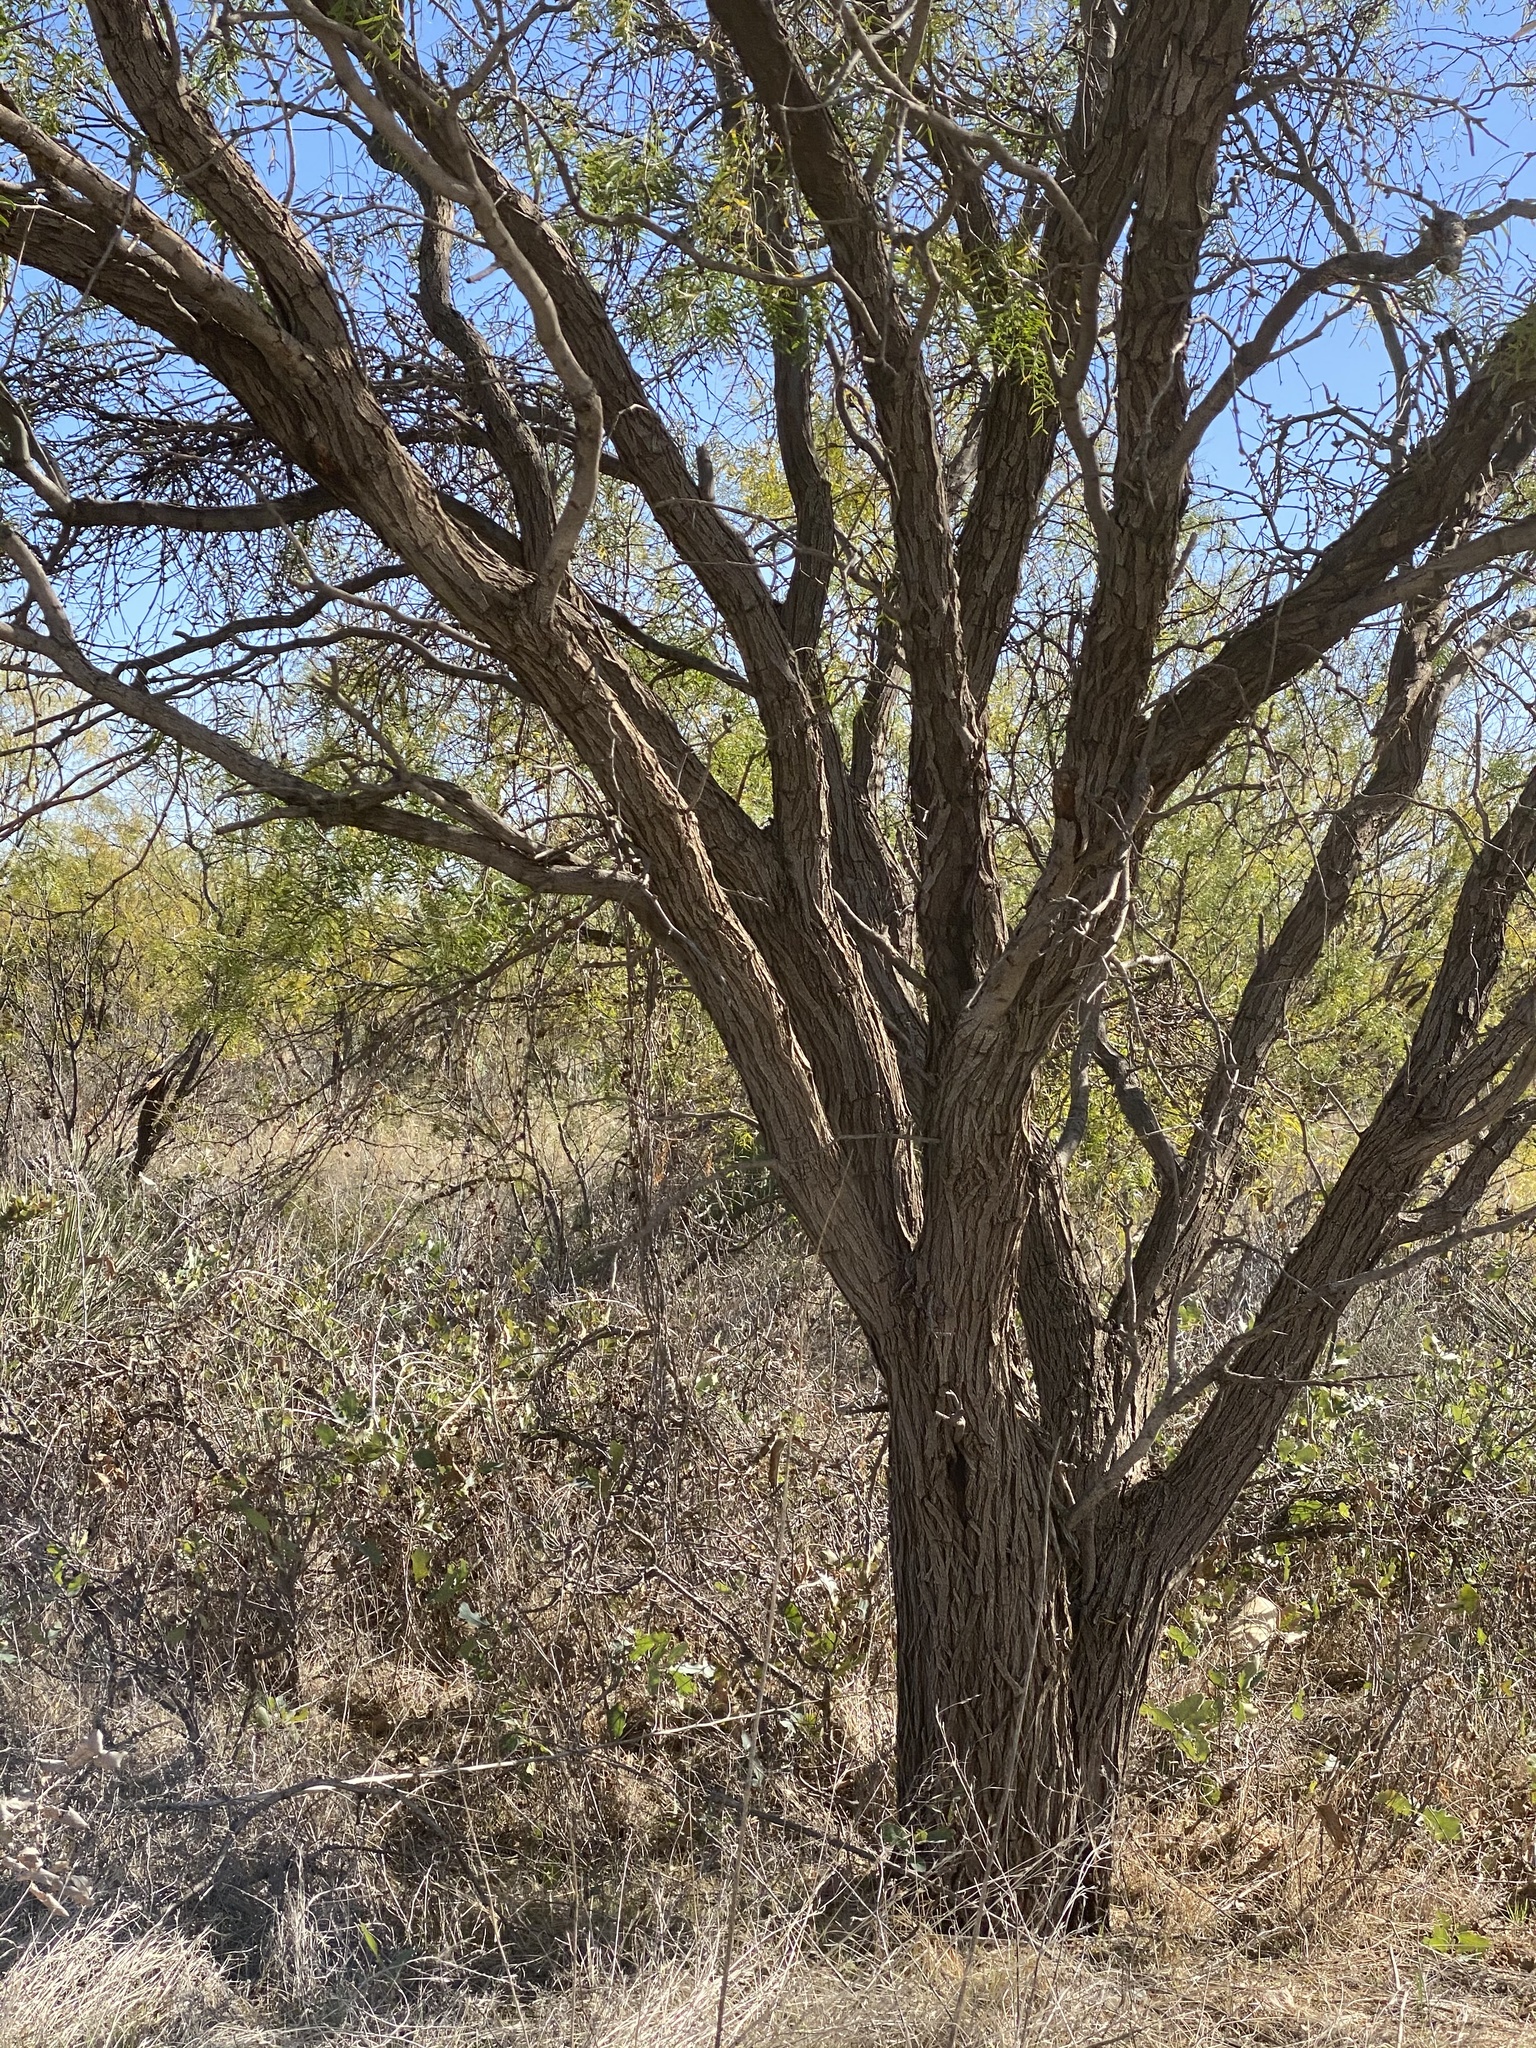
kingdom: Plantae
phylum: Tracheophyta
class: Magnoliopsida
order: Fabales
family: Fabaceae
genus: Prosopis
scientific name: Prosopis glandulosa
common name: Honey mesquite
